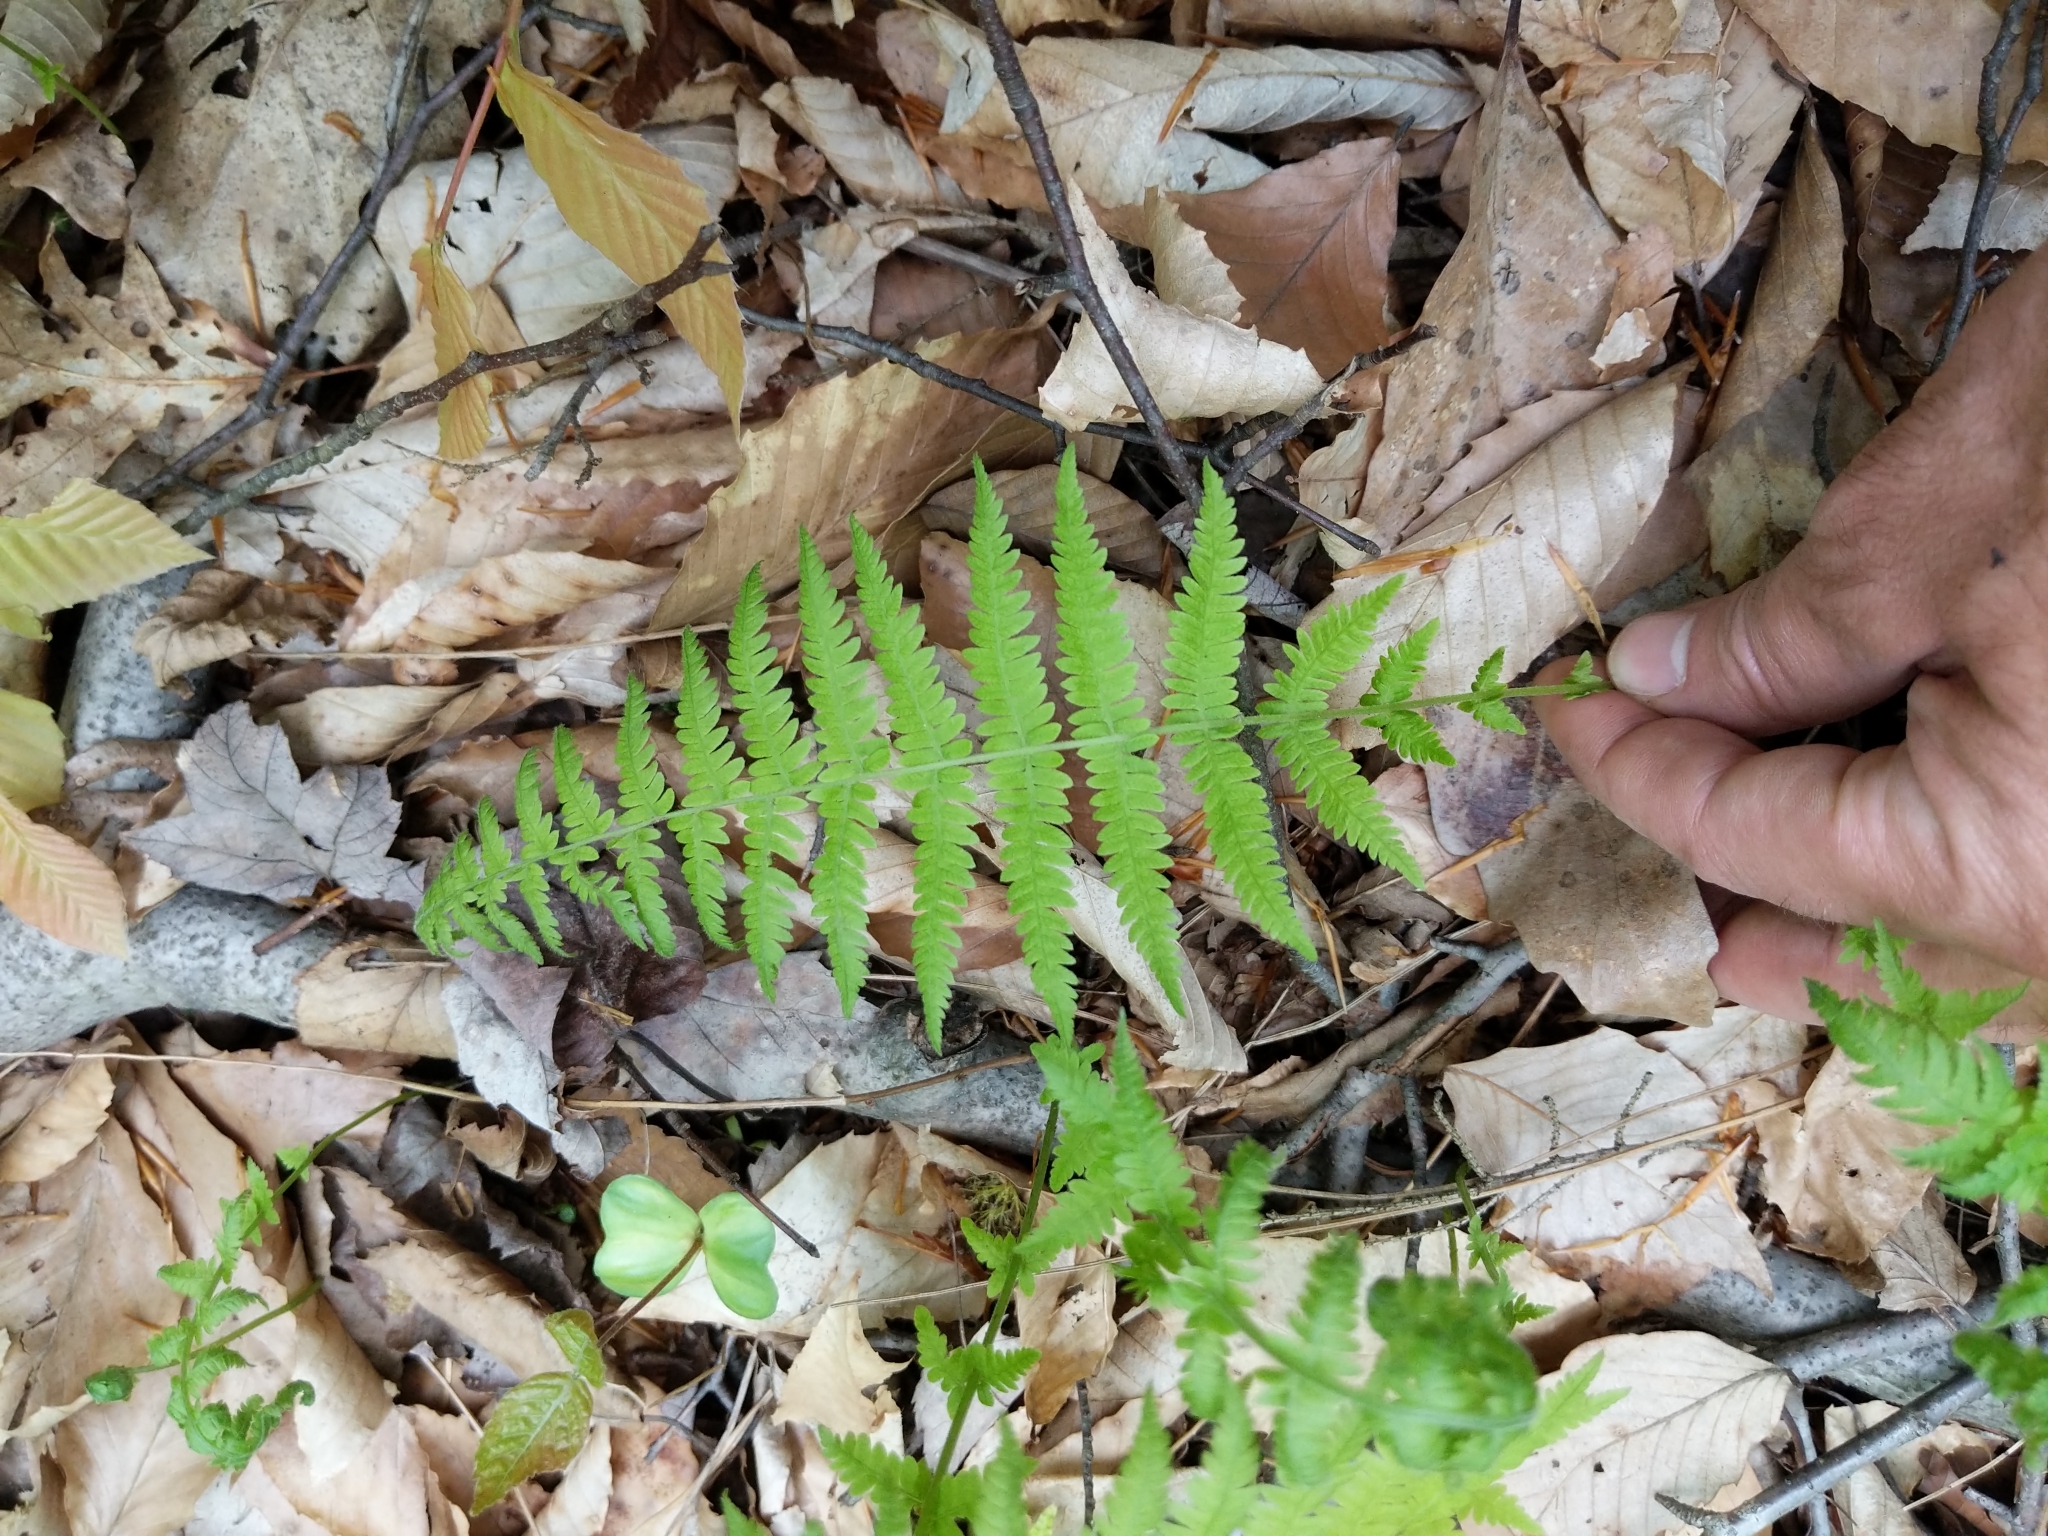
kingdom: Plantae
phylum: Tracheophyta
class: Polypodiopsida
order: Polypodiales
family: Thelypteridaceae
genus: Amauropelta
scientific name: Amauropelta noveboracensis
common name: New york fern
